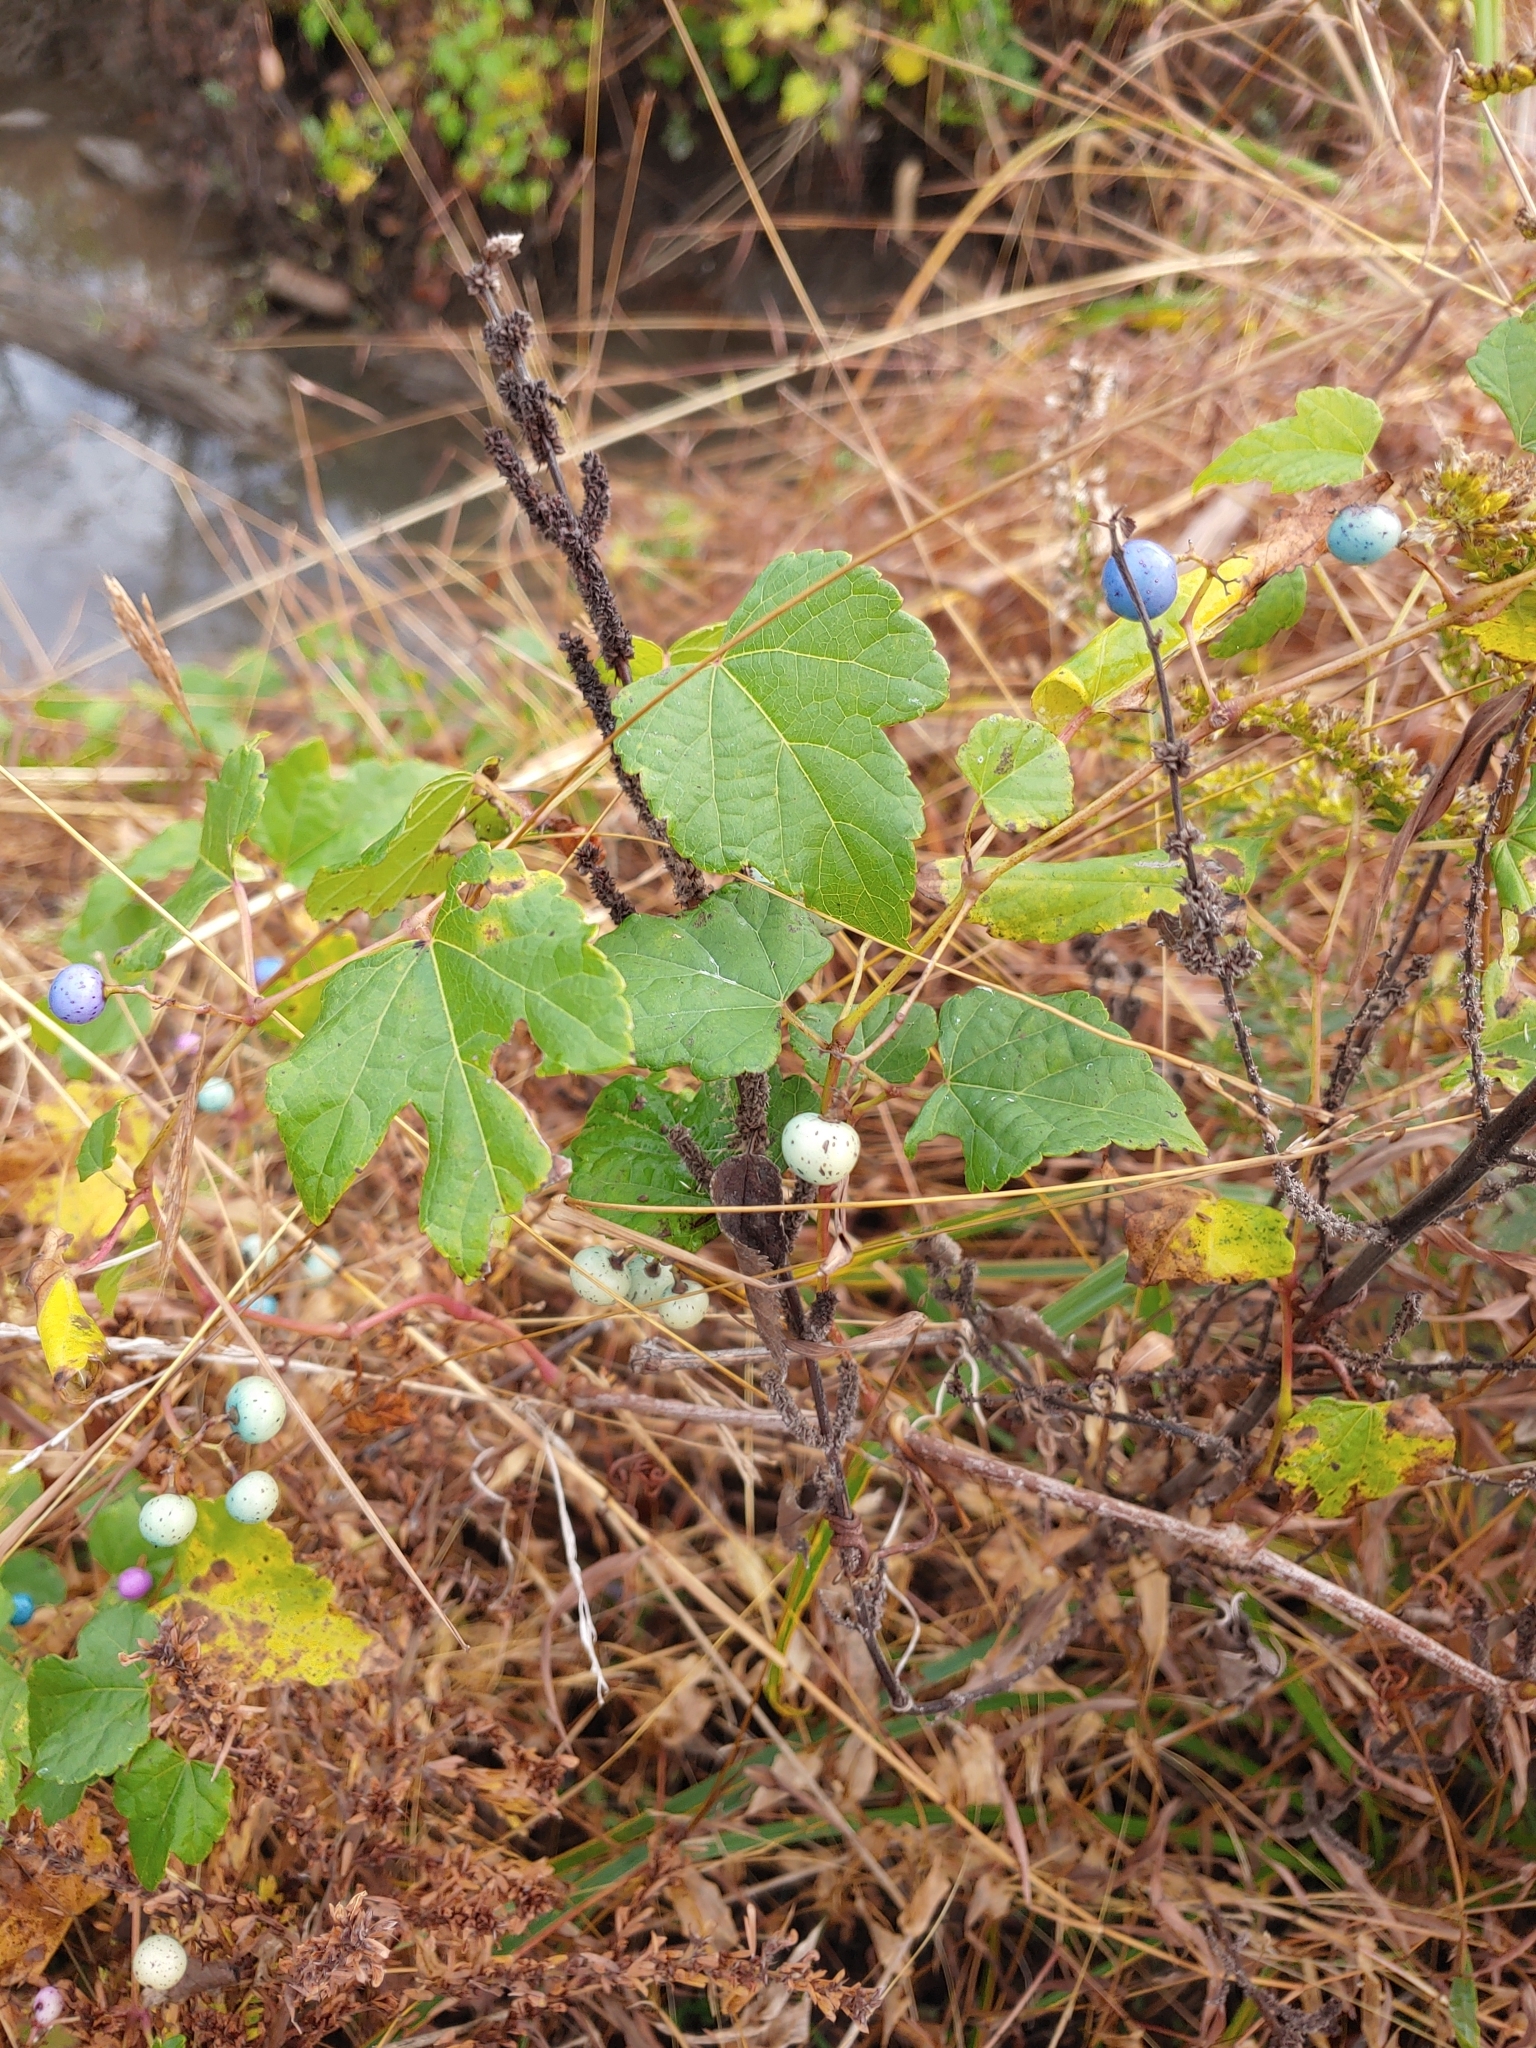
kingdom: Plantae
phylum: Tracheophyta
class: Magnoliopsida
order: Vitales
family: Vitaceae
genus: Ampelopsis
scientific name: Ampelopsis glandulosa
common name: Amur peppervine
